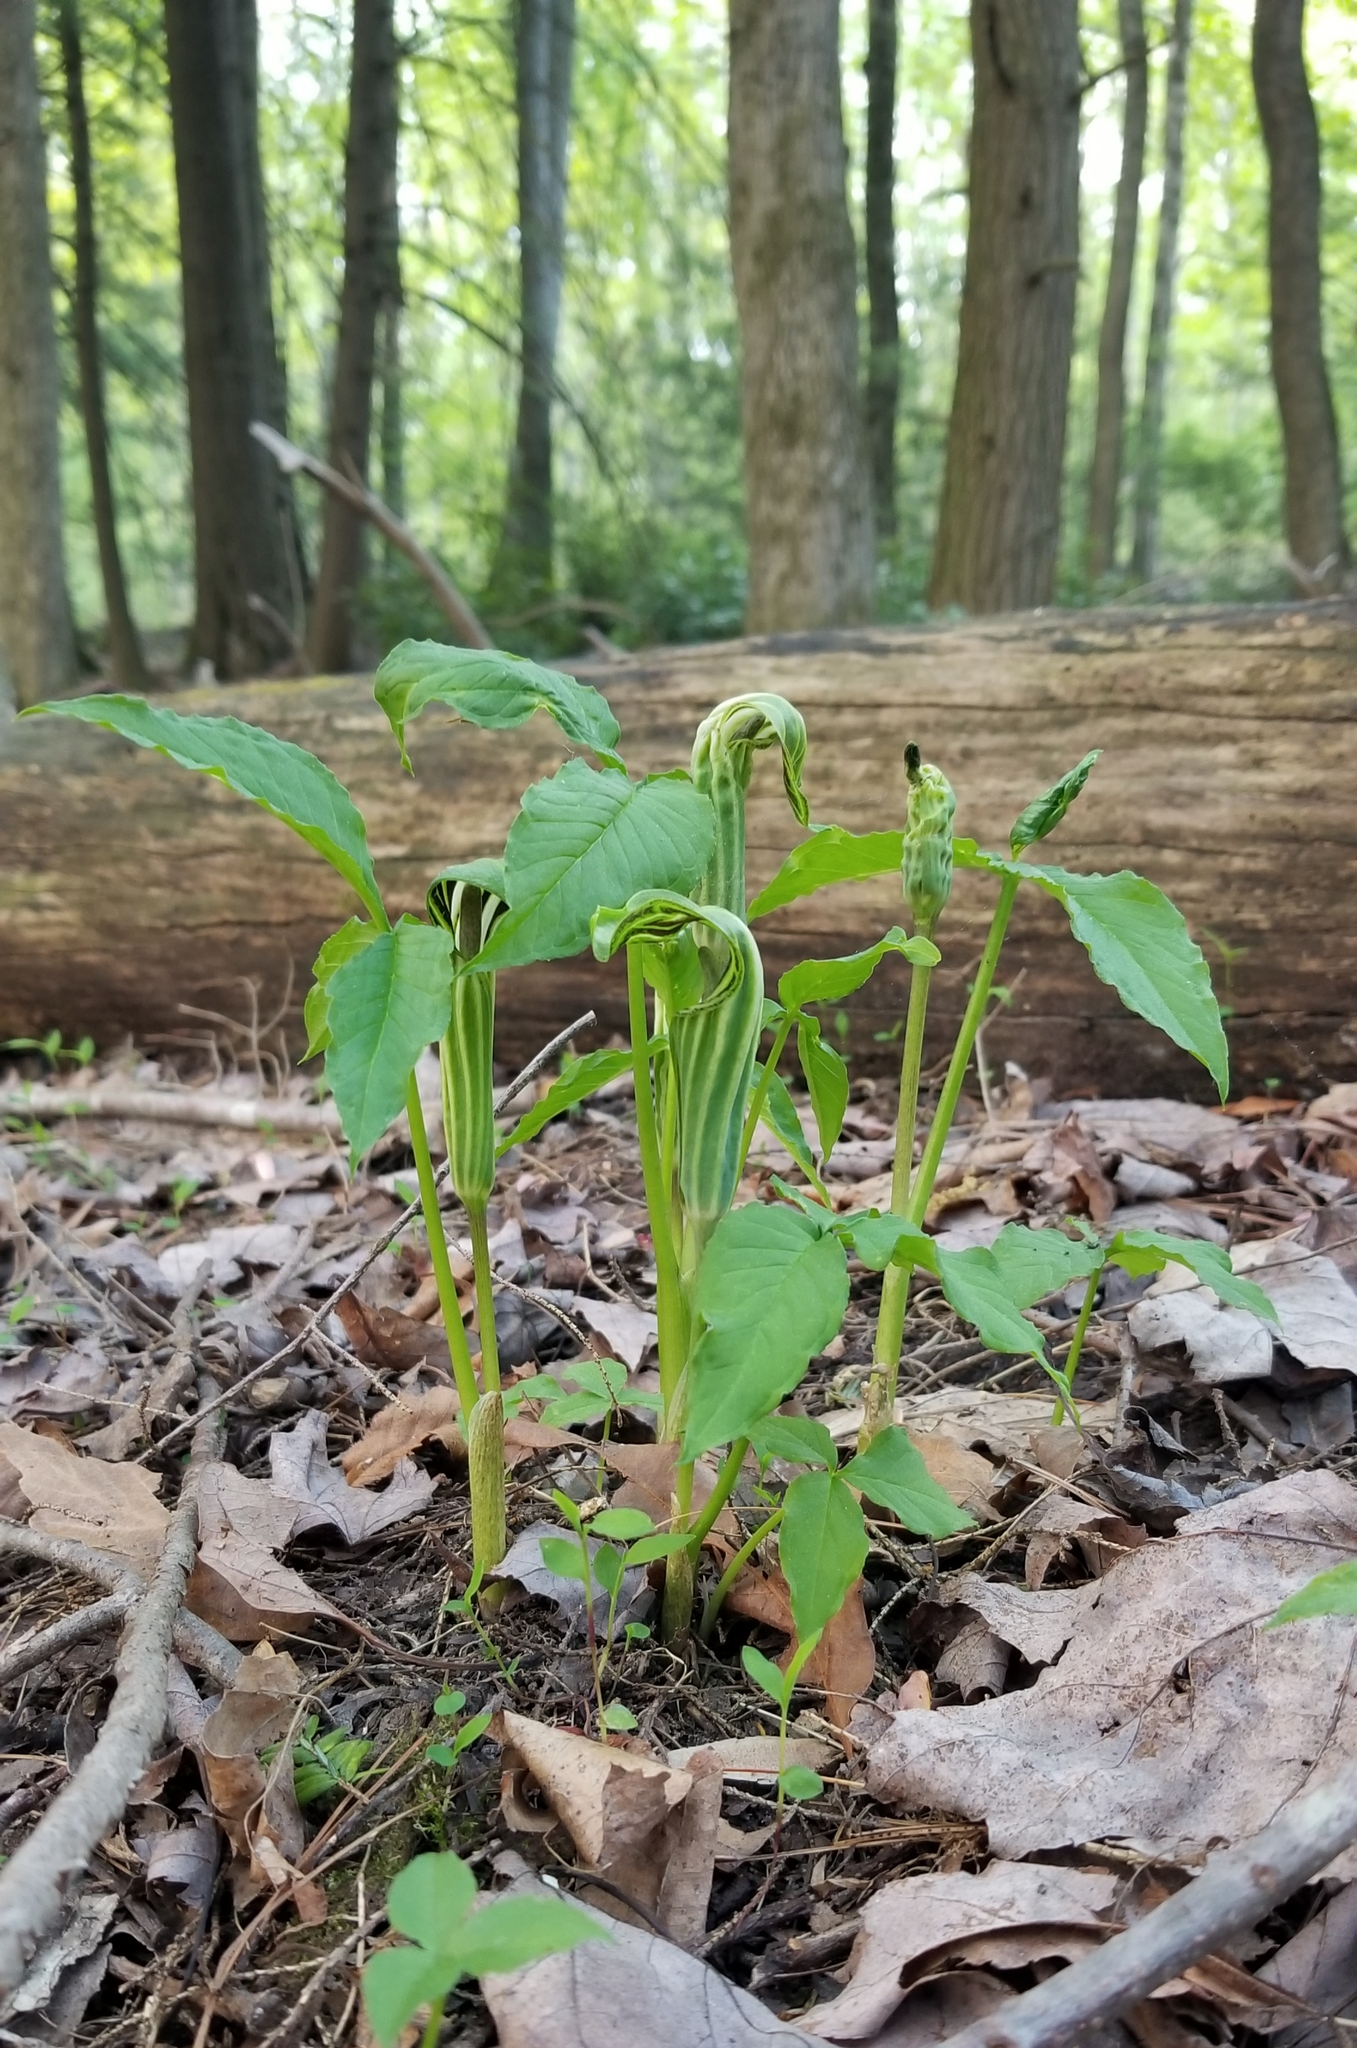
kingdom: Plantae
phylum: Tracheophyta
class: Liliopsida
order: Alismatales
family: Araceae
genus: Arisaema
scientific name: Arisaema stewardsonii
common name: Swamp jack-in-the-pulpit
